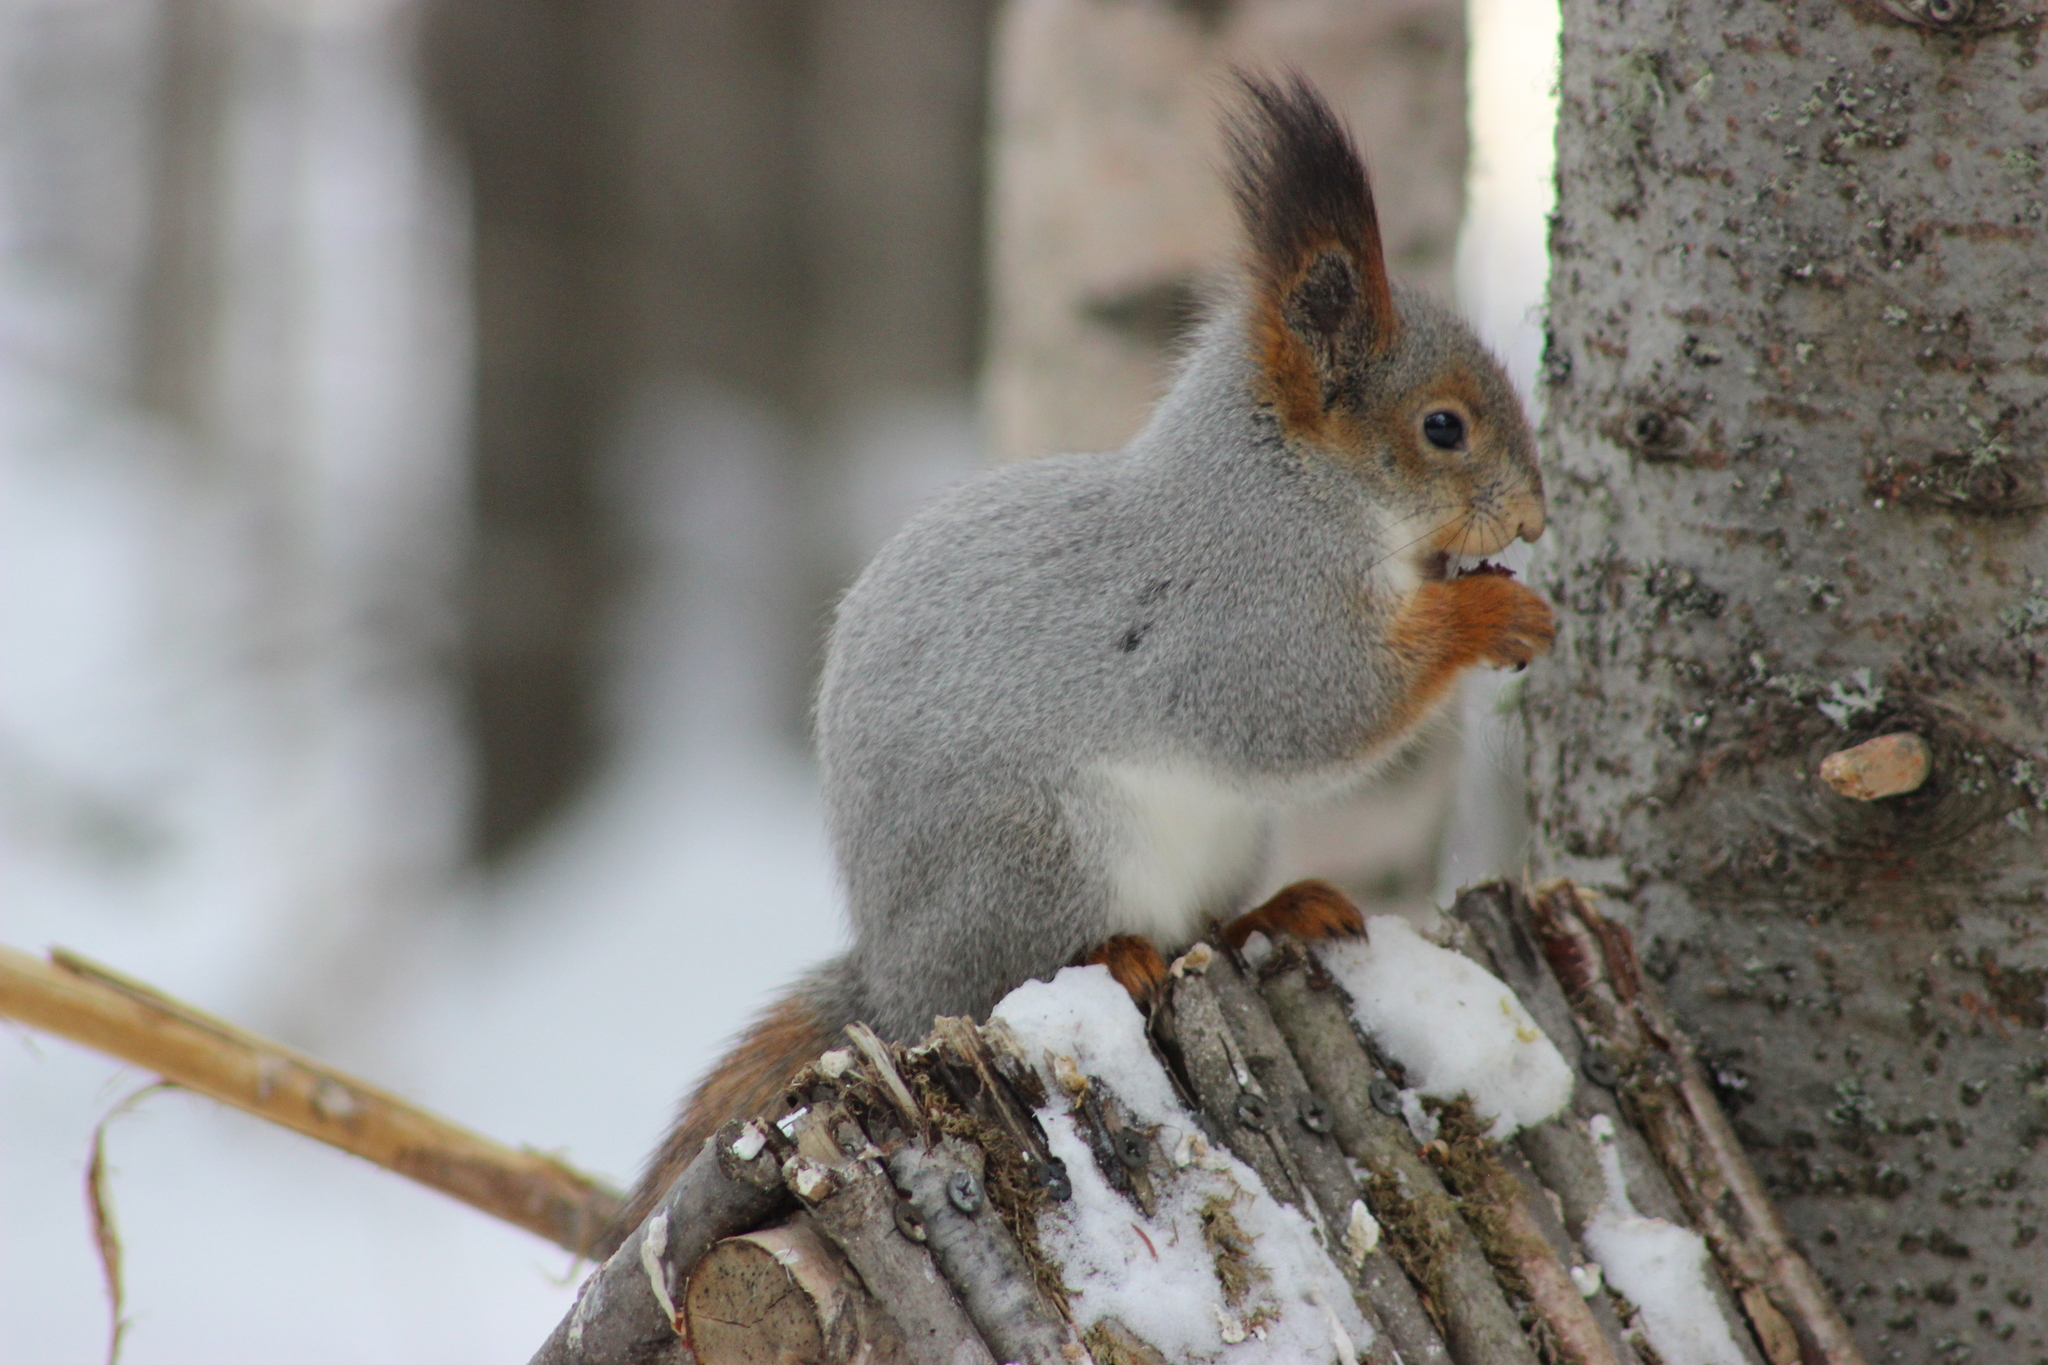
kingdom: Animalia
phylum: Chordata
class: Mammalia
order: Rodentia
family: Sciuridae
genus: Sciurus
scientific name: Sciurus vulgaris
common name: Eurasian red squirrel
